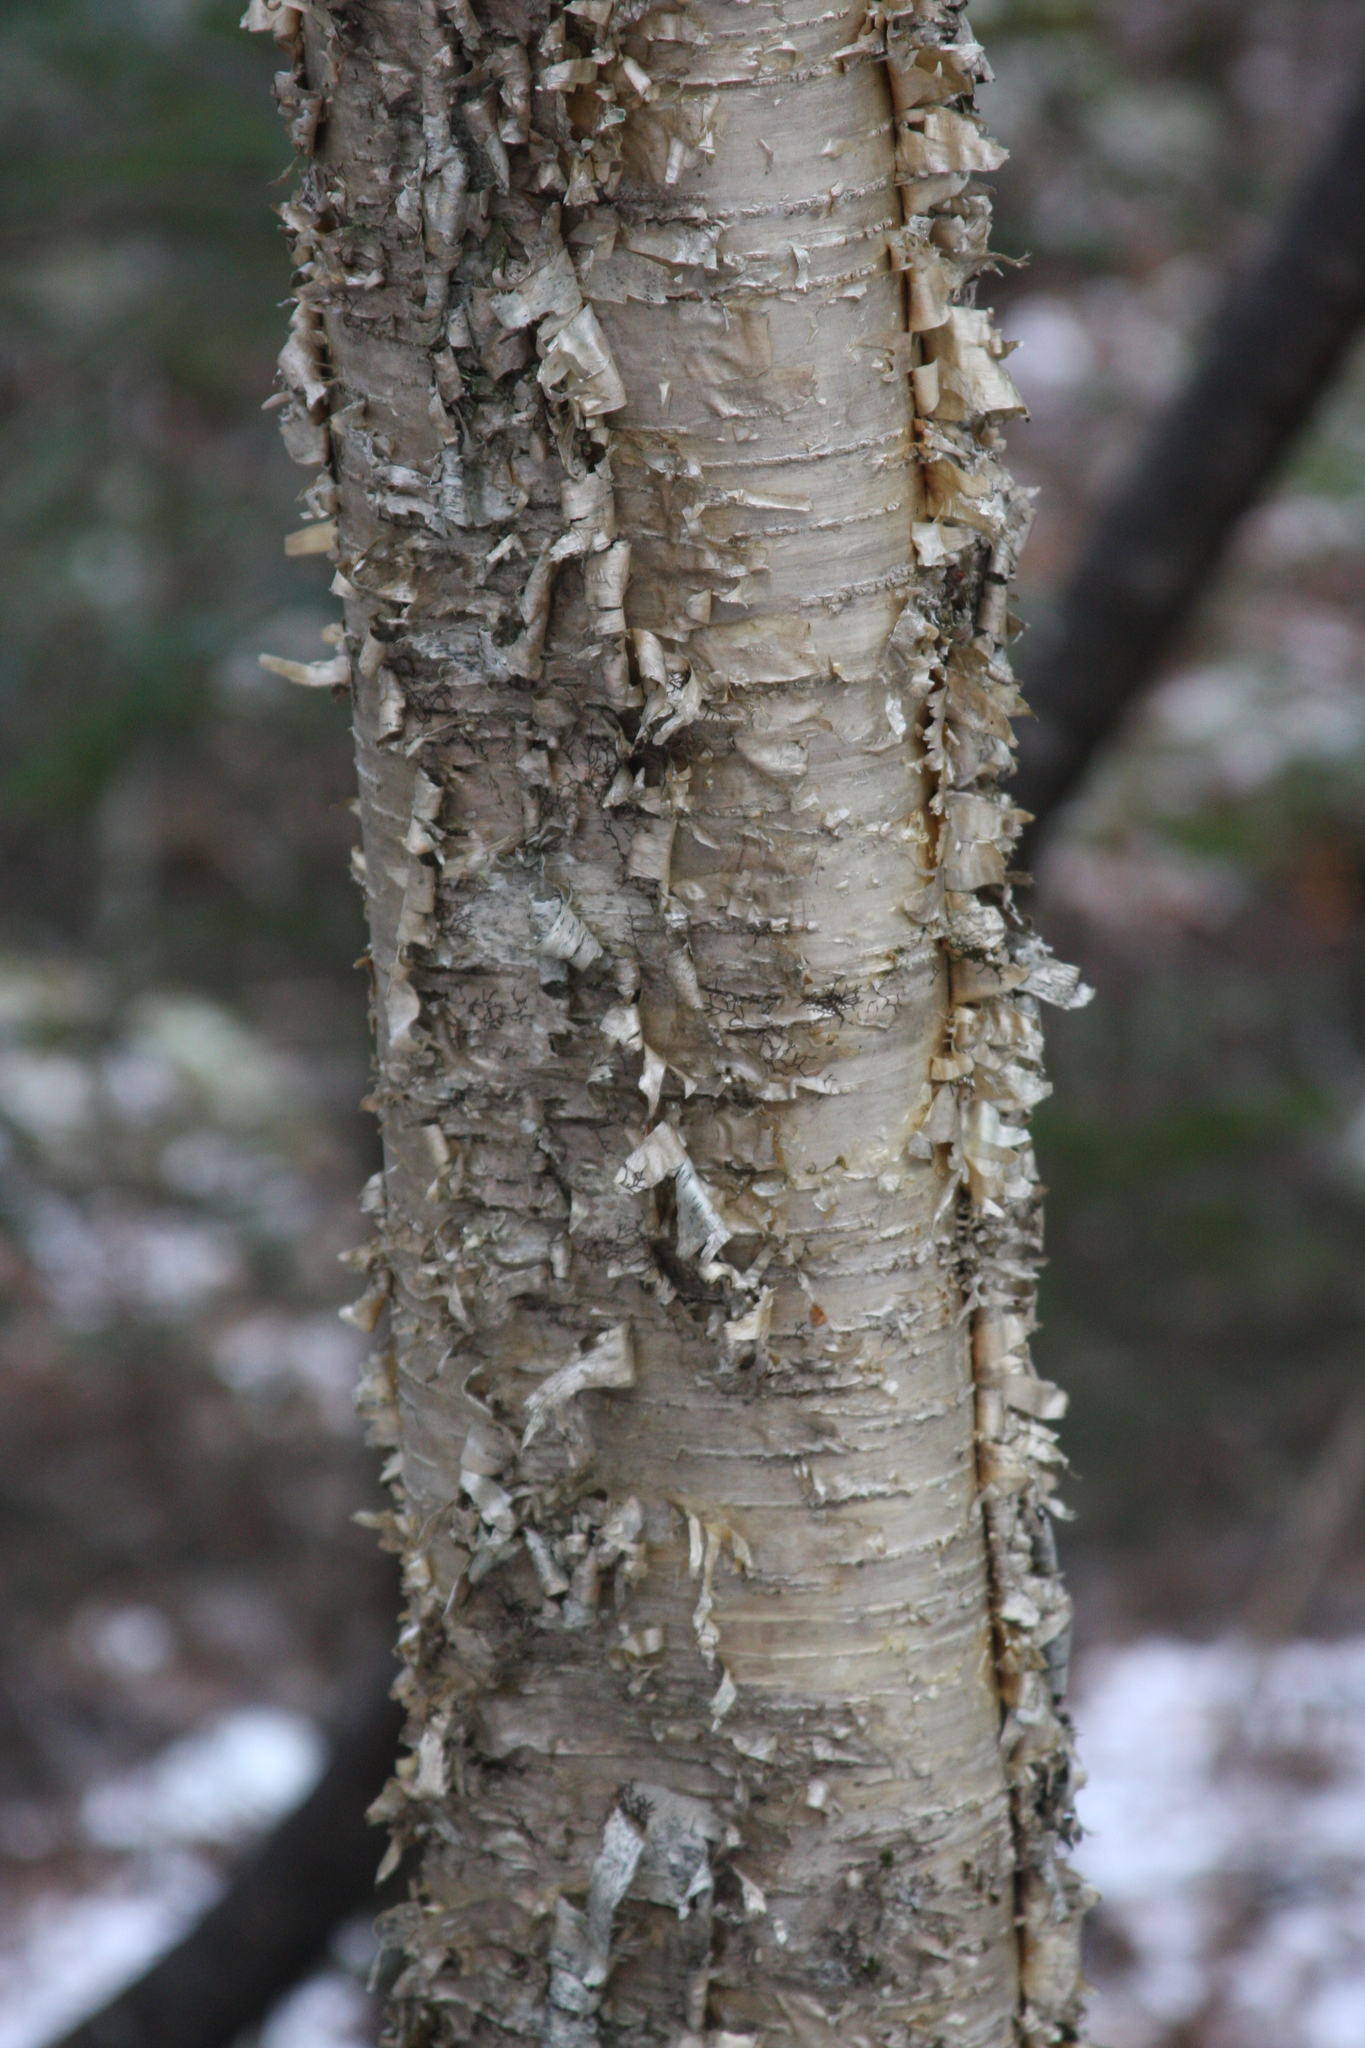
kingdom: Plantae
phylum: Tracheophyta
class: Magnoliopsida
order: Fagales
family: Betulaceae
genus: Betula
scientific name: Betula alleghaniensis
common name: Yellow birch
